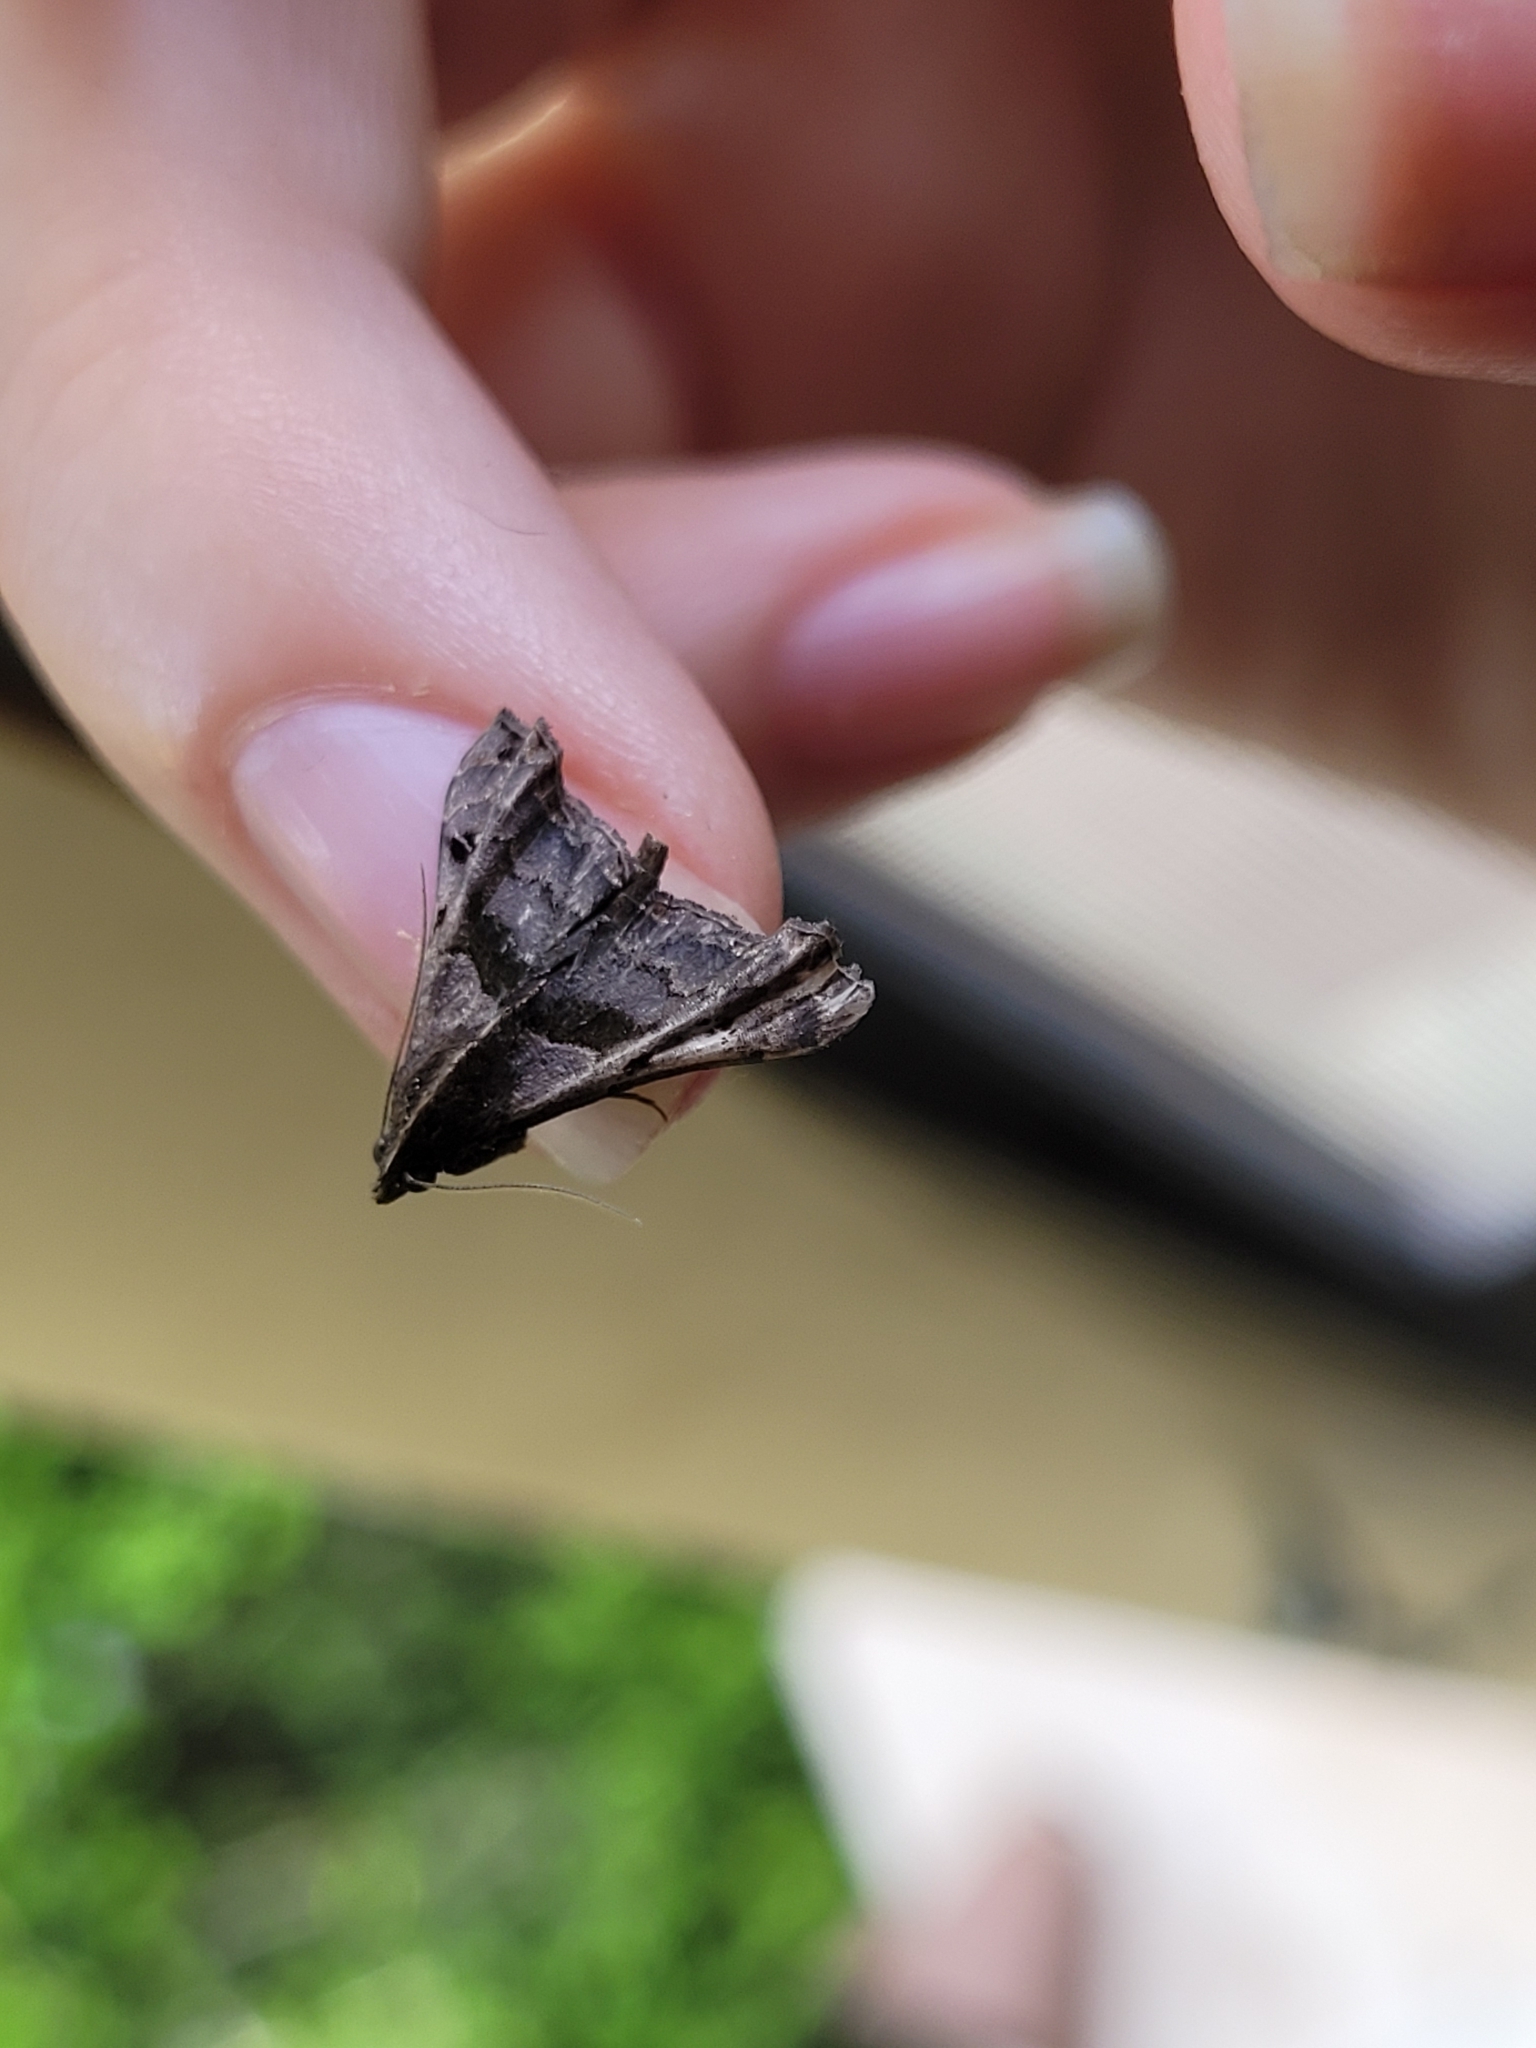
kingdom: Animalia
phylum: Arthropoda
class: Insecta
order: Lepidoptera
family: Erebidae
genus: Palthis
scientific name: Palthis asopialis
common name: Faint-spotted palthis moth
